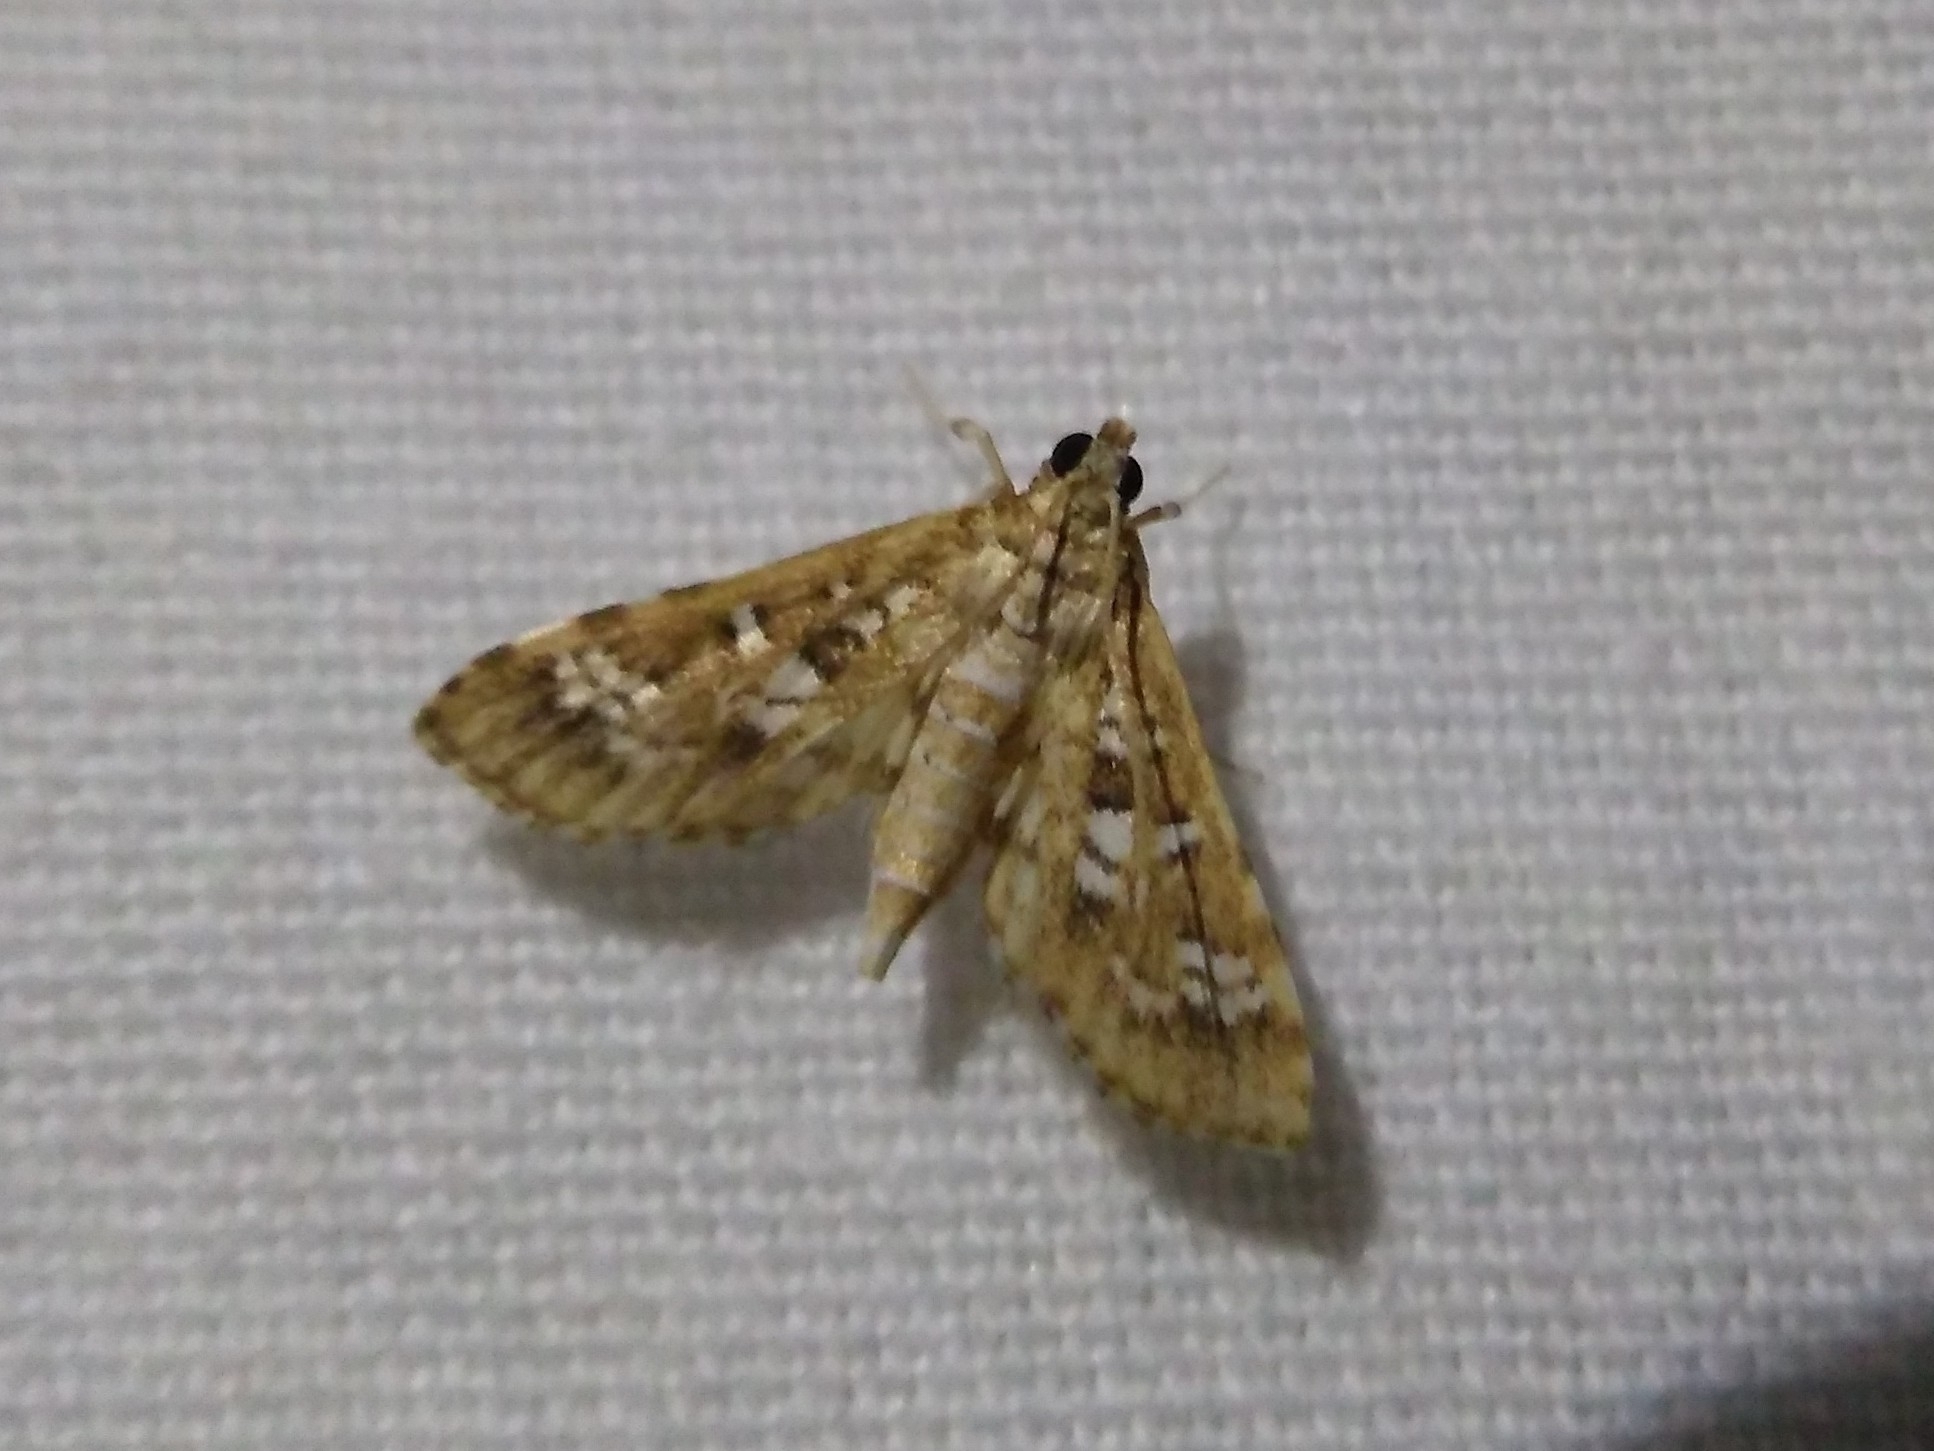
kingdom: Animalia
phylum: Arthropoda
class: Insecta
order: Lepidoptera
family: Crambidae
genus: Samea
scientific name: Samea multiplicalis
